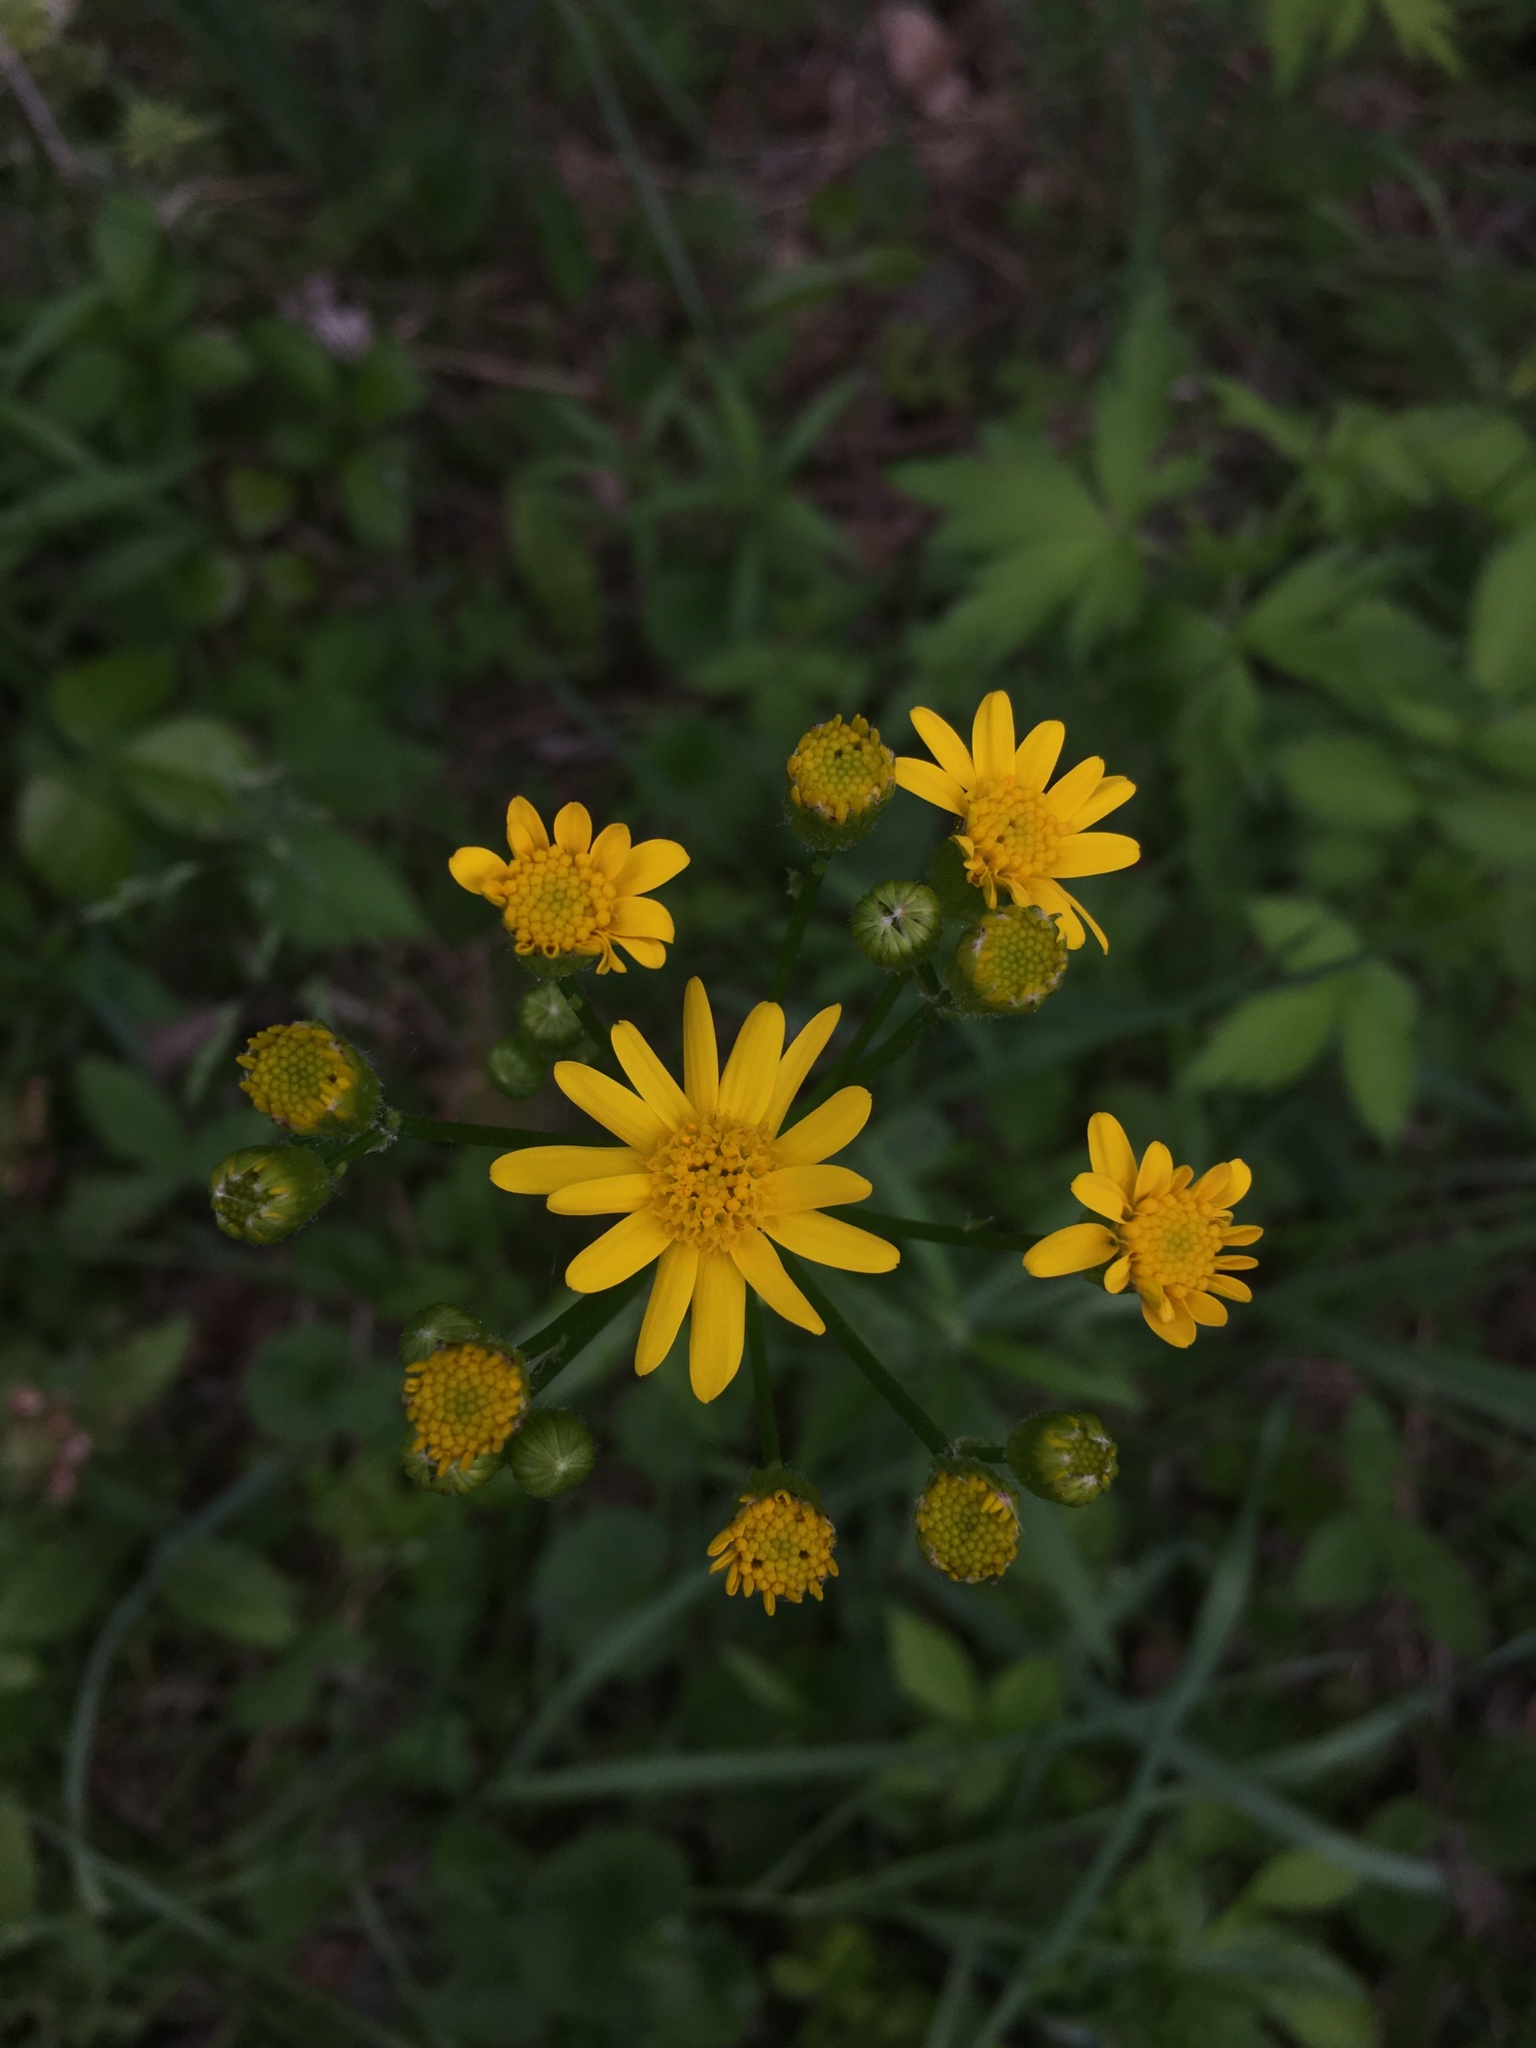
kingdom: Plantae
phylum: Tracheophyta
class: Magnoliopsida
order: Asterales
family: Asteraceae
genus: Packera
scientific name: Packera aurea
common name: Golden groundsel
